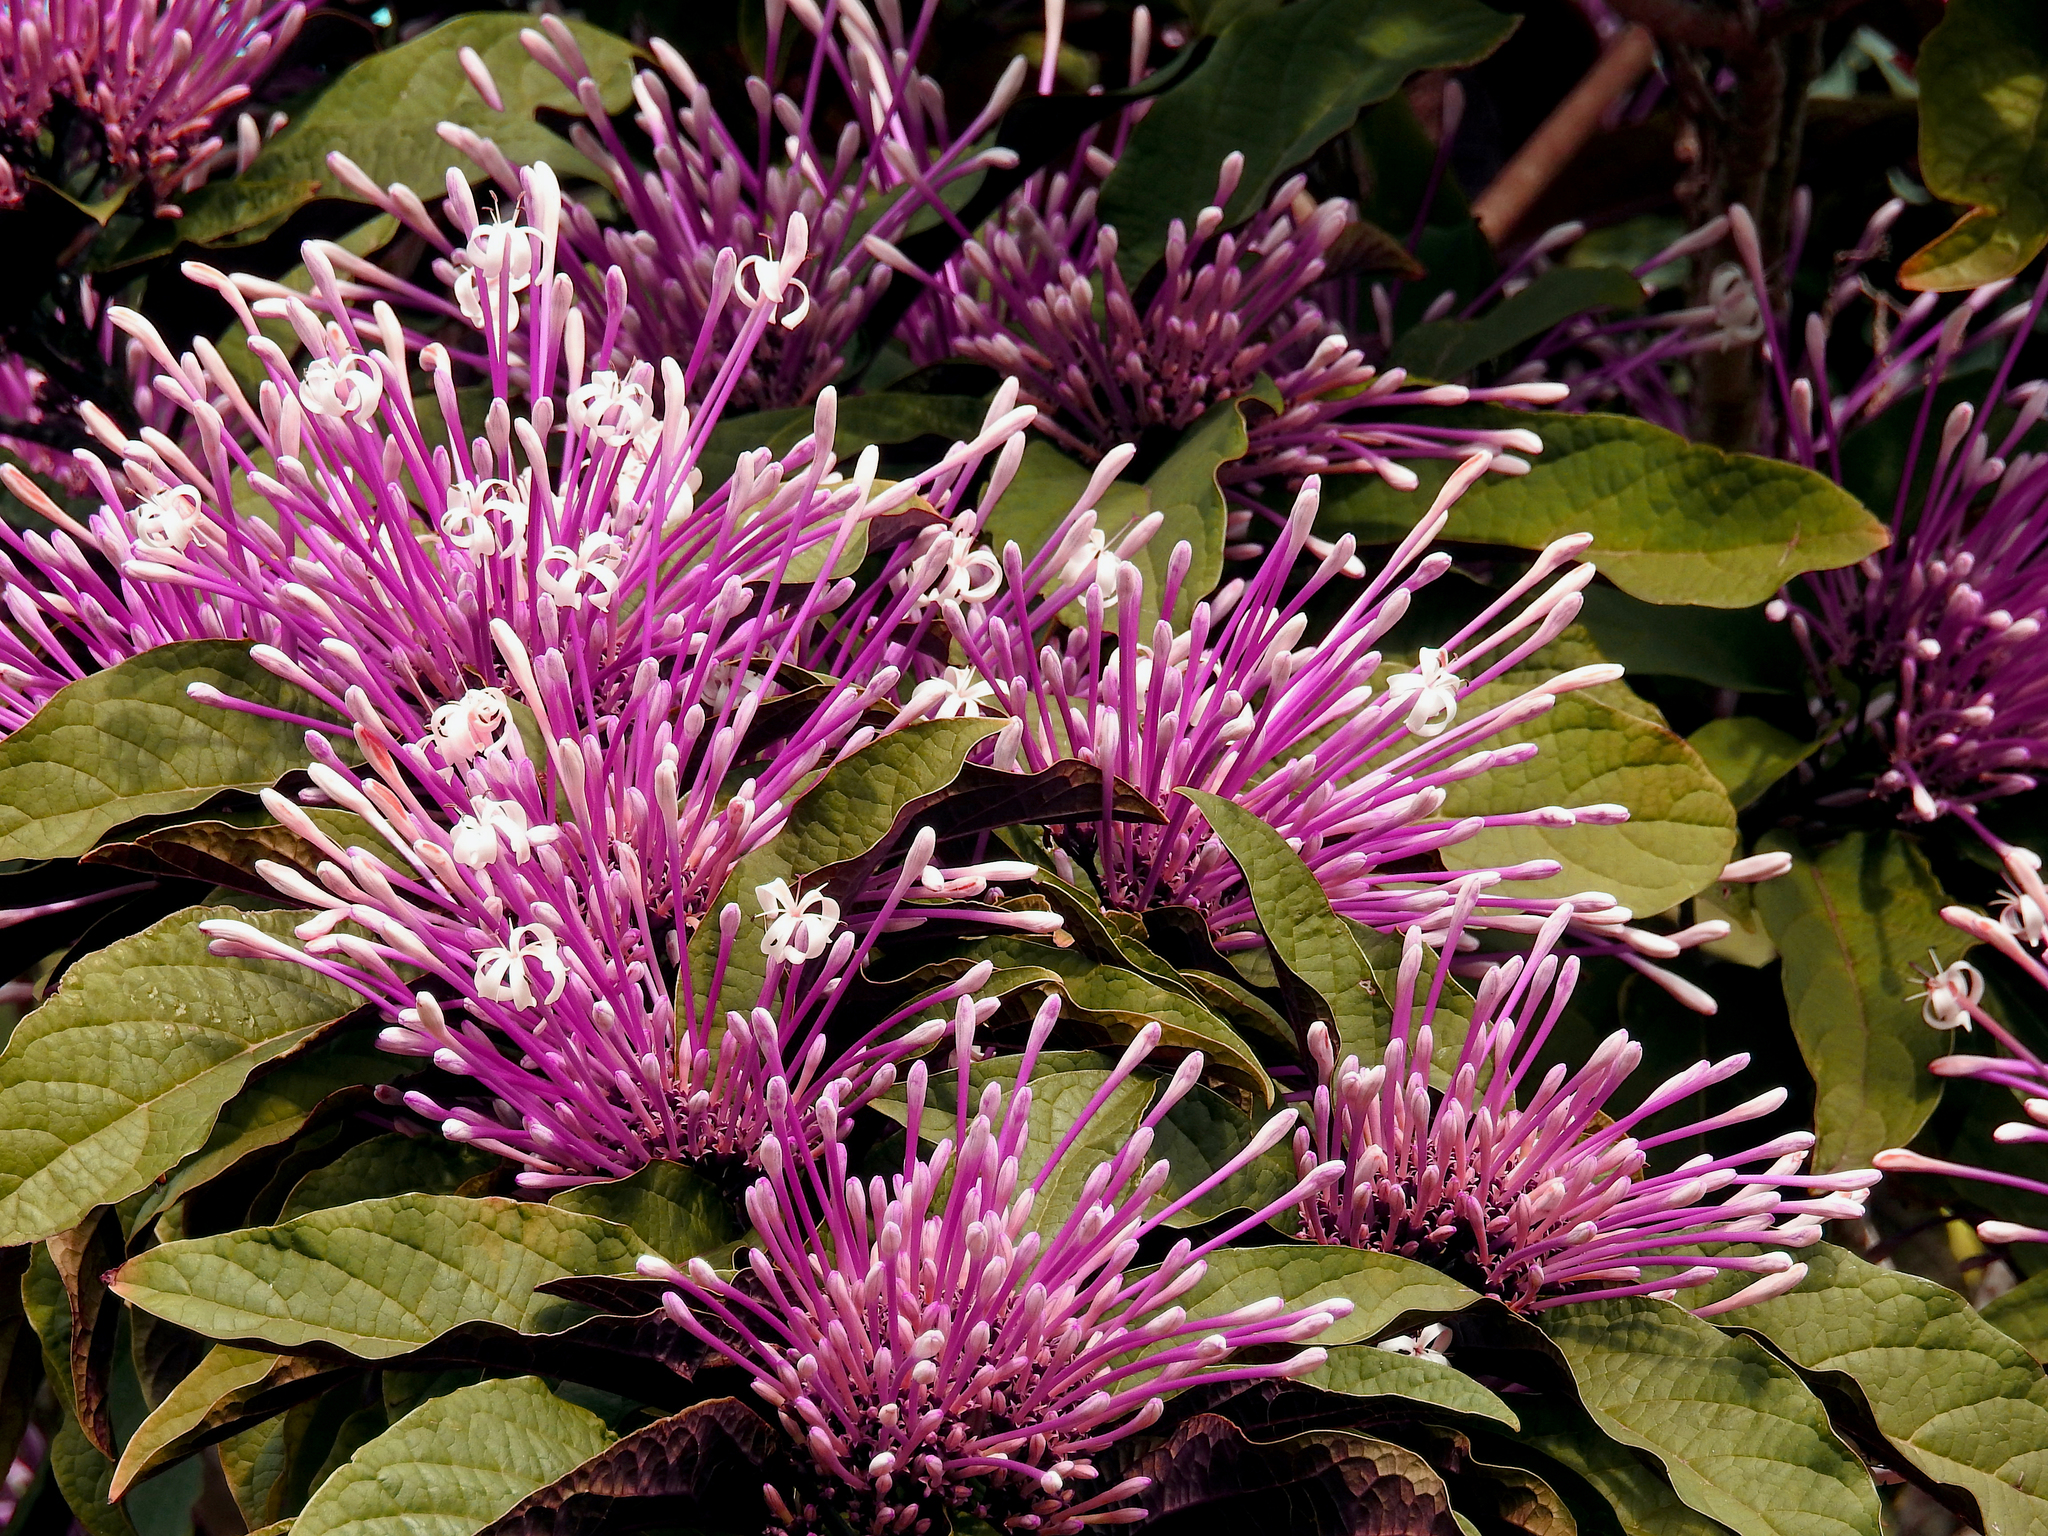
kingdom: Plantae
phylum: Tracheophyta
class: Magnoliopsida
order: Lamiales
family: Lamiaceae
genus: Clerodendrum
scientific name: Clerodendrum quadriloculare
